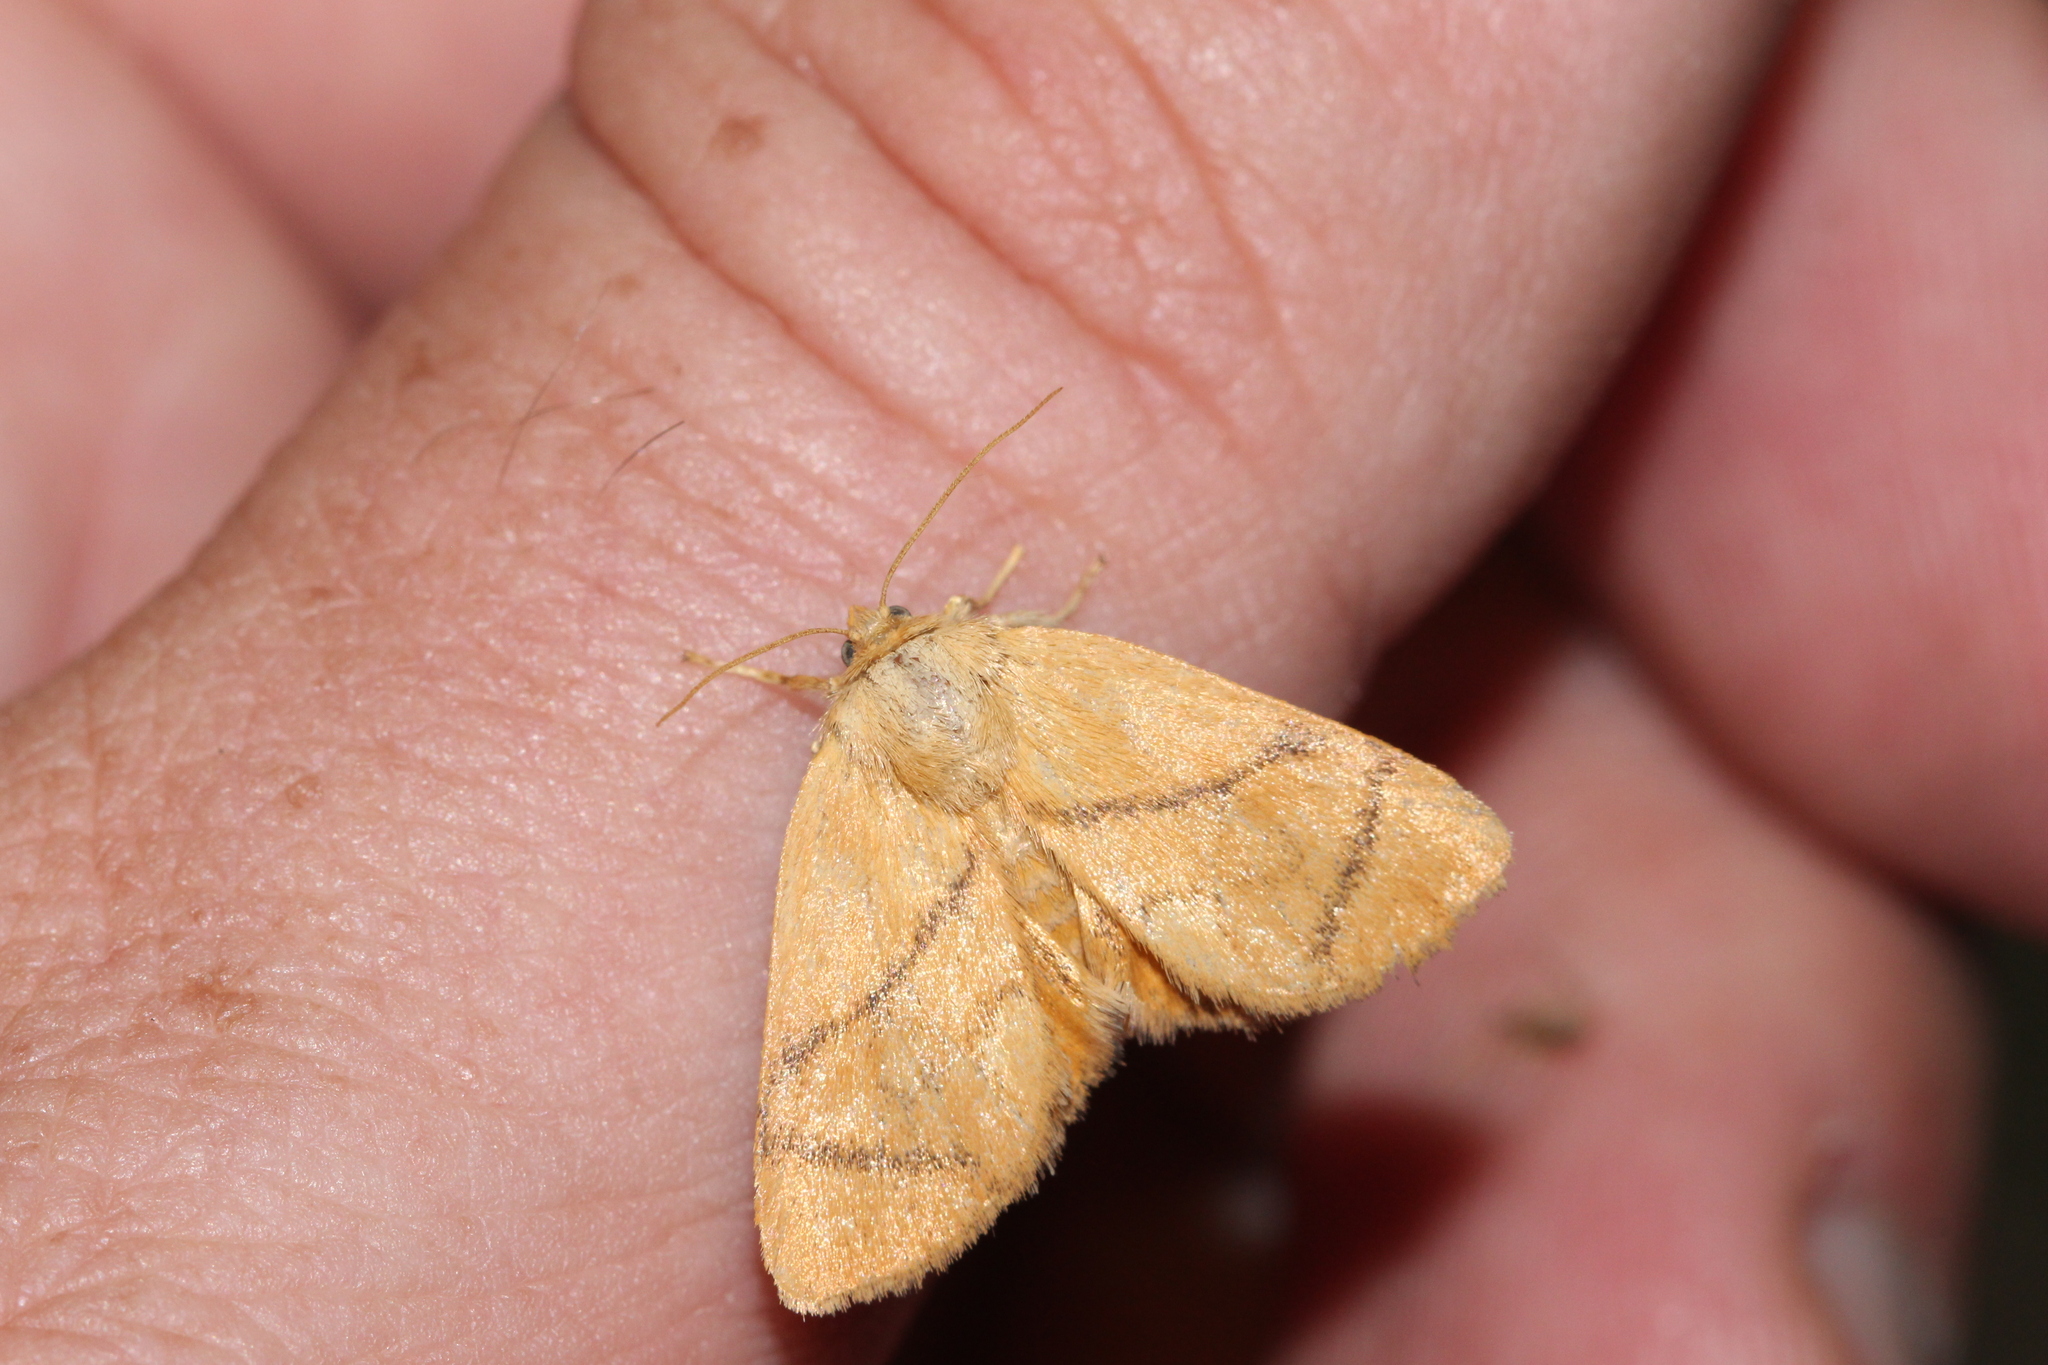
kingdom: Animalia
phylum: Arthropoda
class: Insecta
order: Lepidoptera
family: Limacodidae
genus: Apoda
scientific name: Apoda limacodes
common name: Festoon
